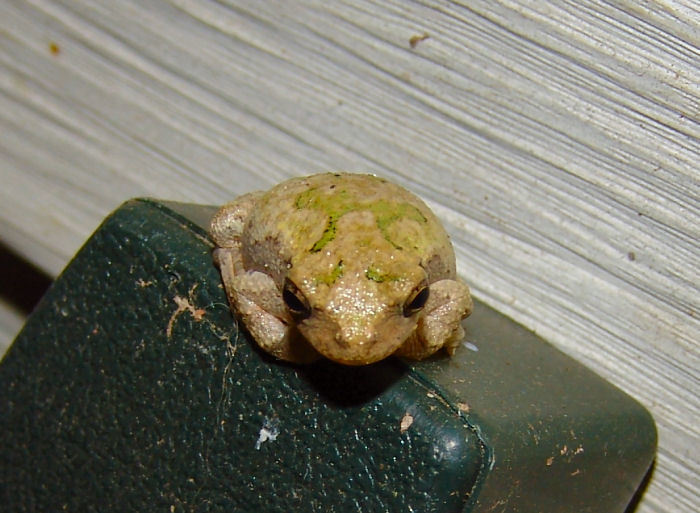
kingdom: Animalia
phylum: Chordata
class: Amphibia
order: Anura
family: Hylidae
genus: Dryophytes
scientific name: Dryophytes chrysoscelis
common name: Cope's gray treefrog
